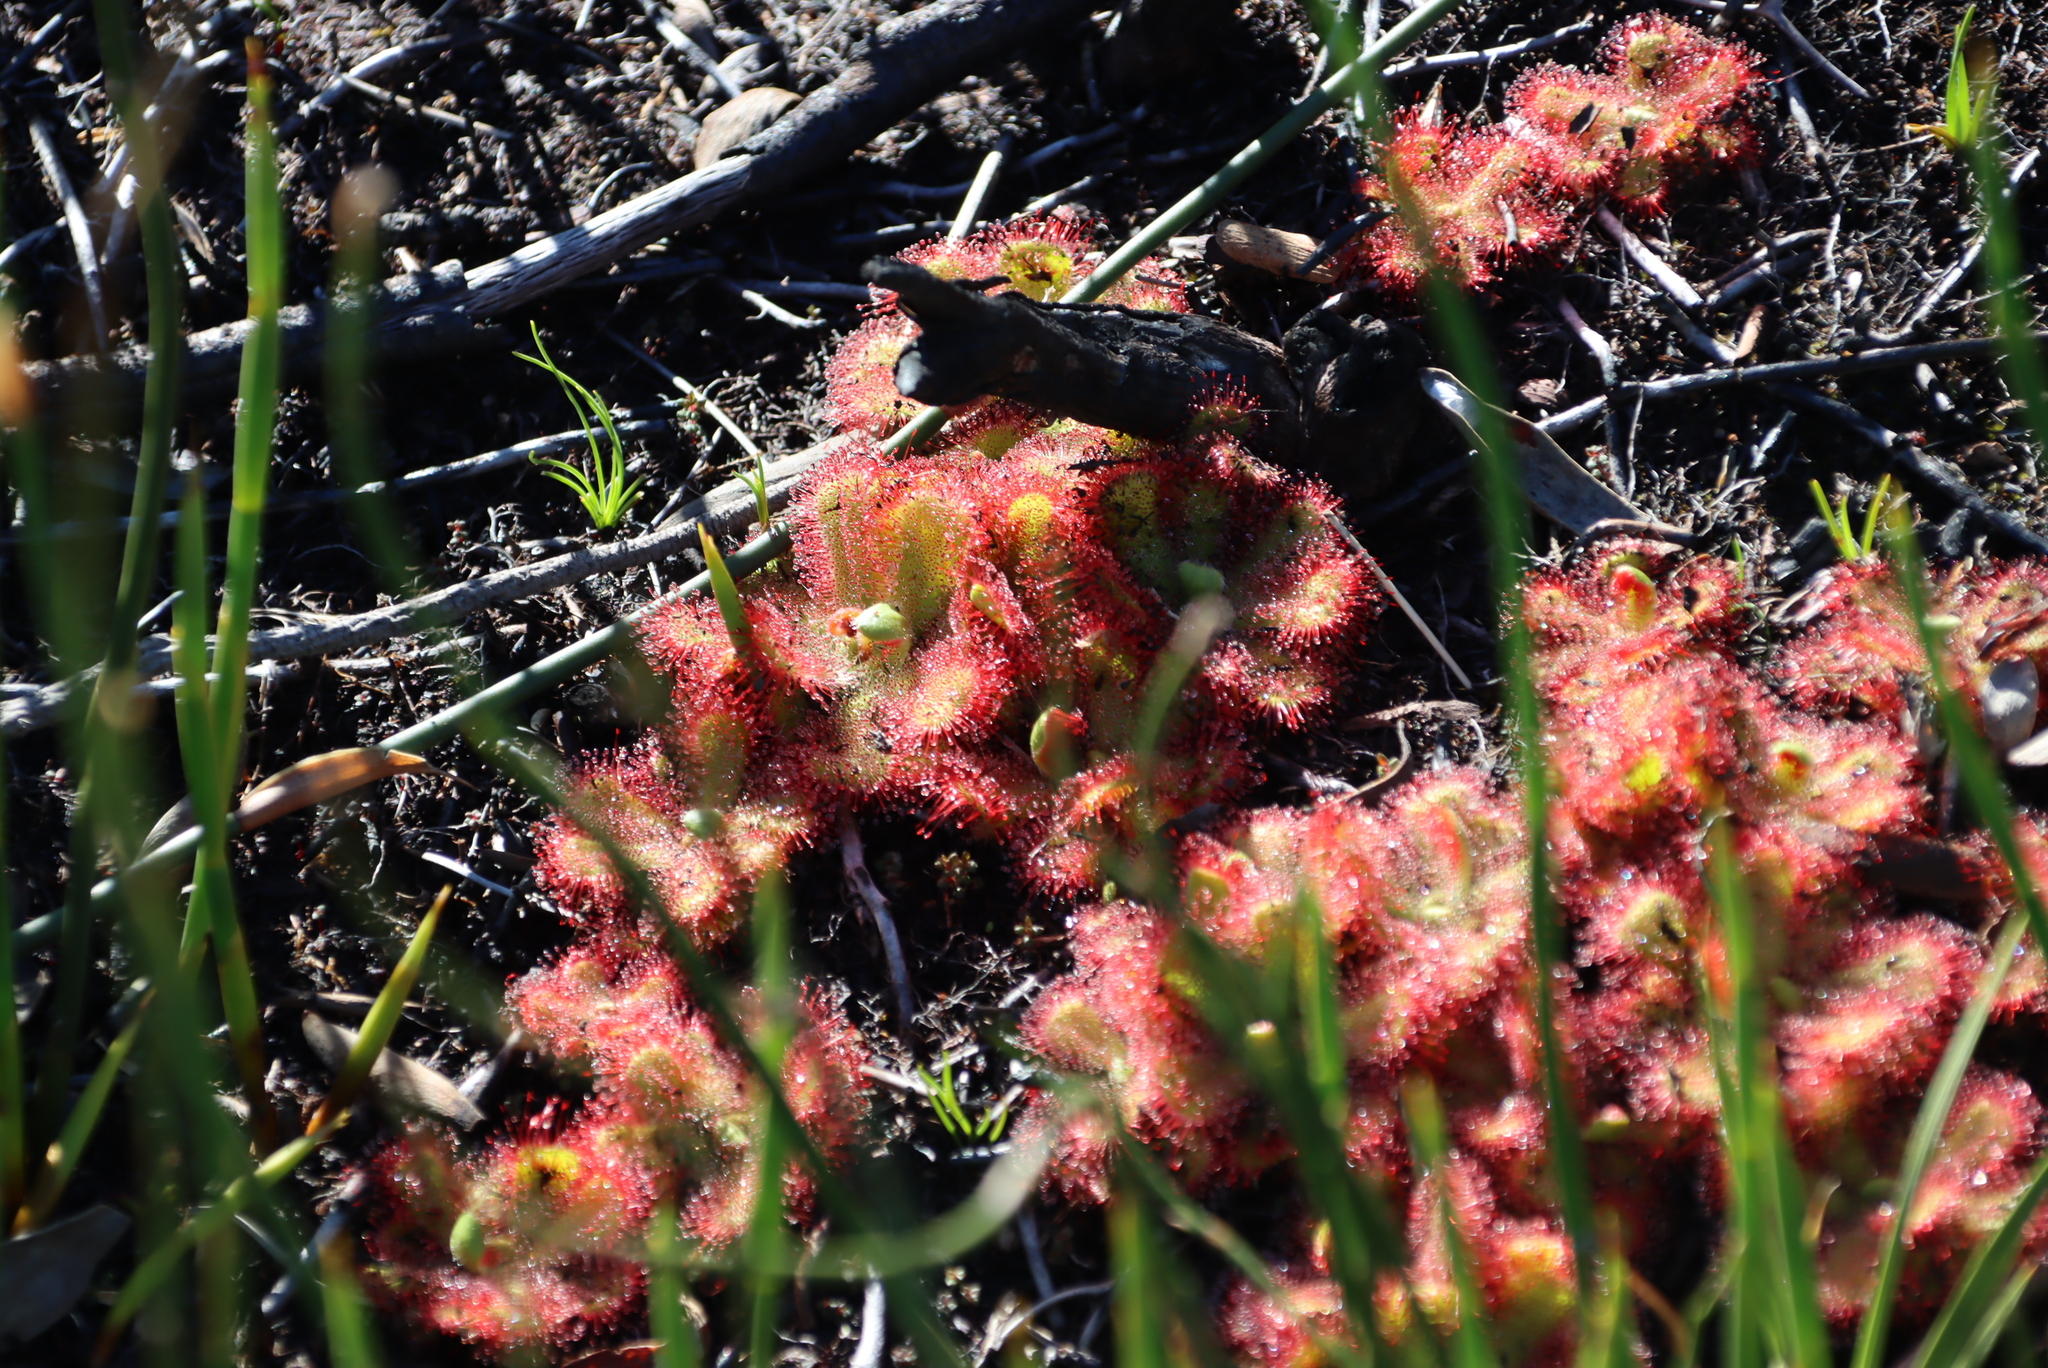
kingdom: Plantae
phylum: Tracheophyta
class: Magnoliopsida
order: Caryophyllales
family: Droseraceae
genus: Drosera
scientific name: Drosera cuneifolia
